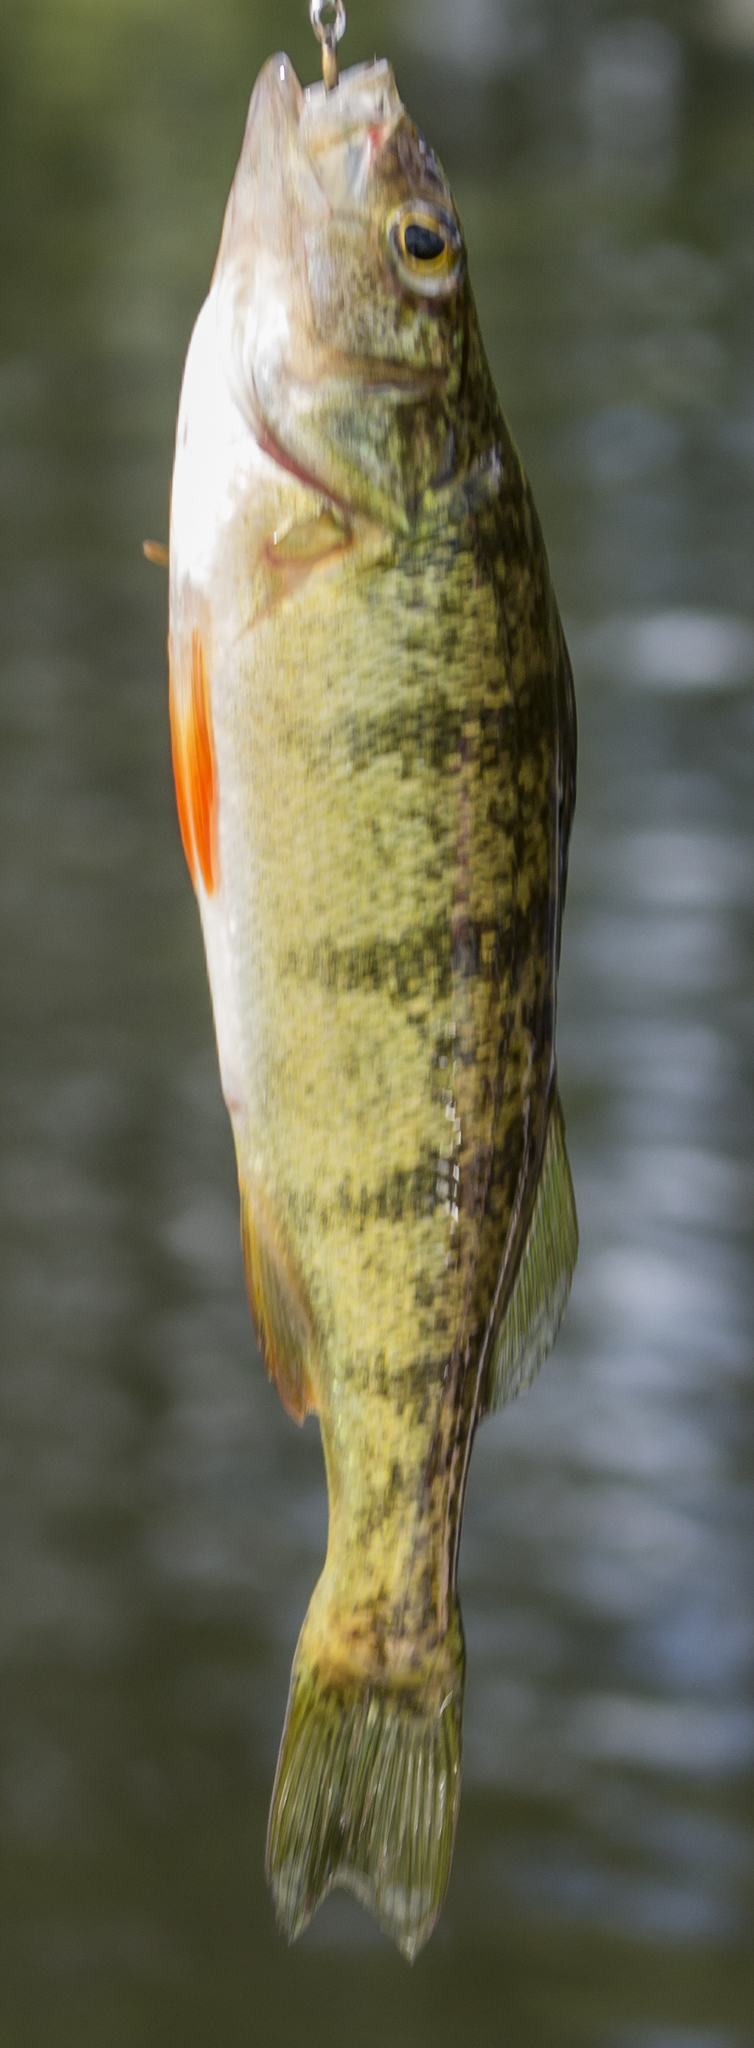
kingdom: Animalia
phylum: Chordata
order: Perciformes
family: Percidae
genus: Perca
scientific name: Perca flavescens
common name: Yellow perch
